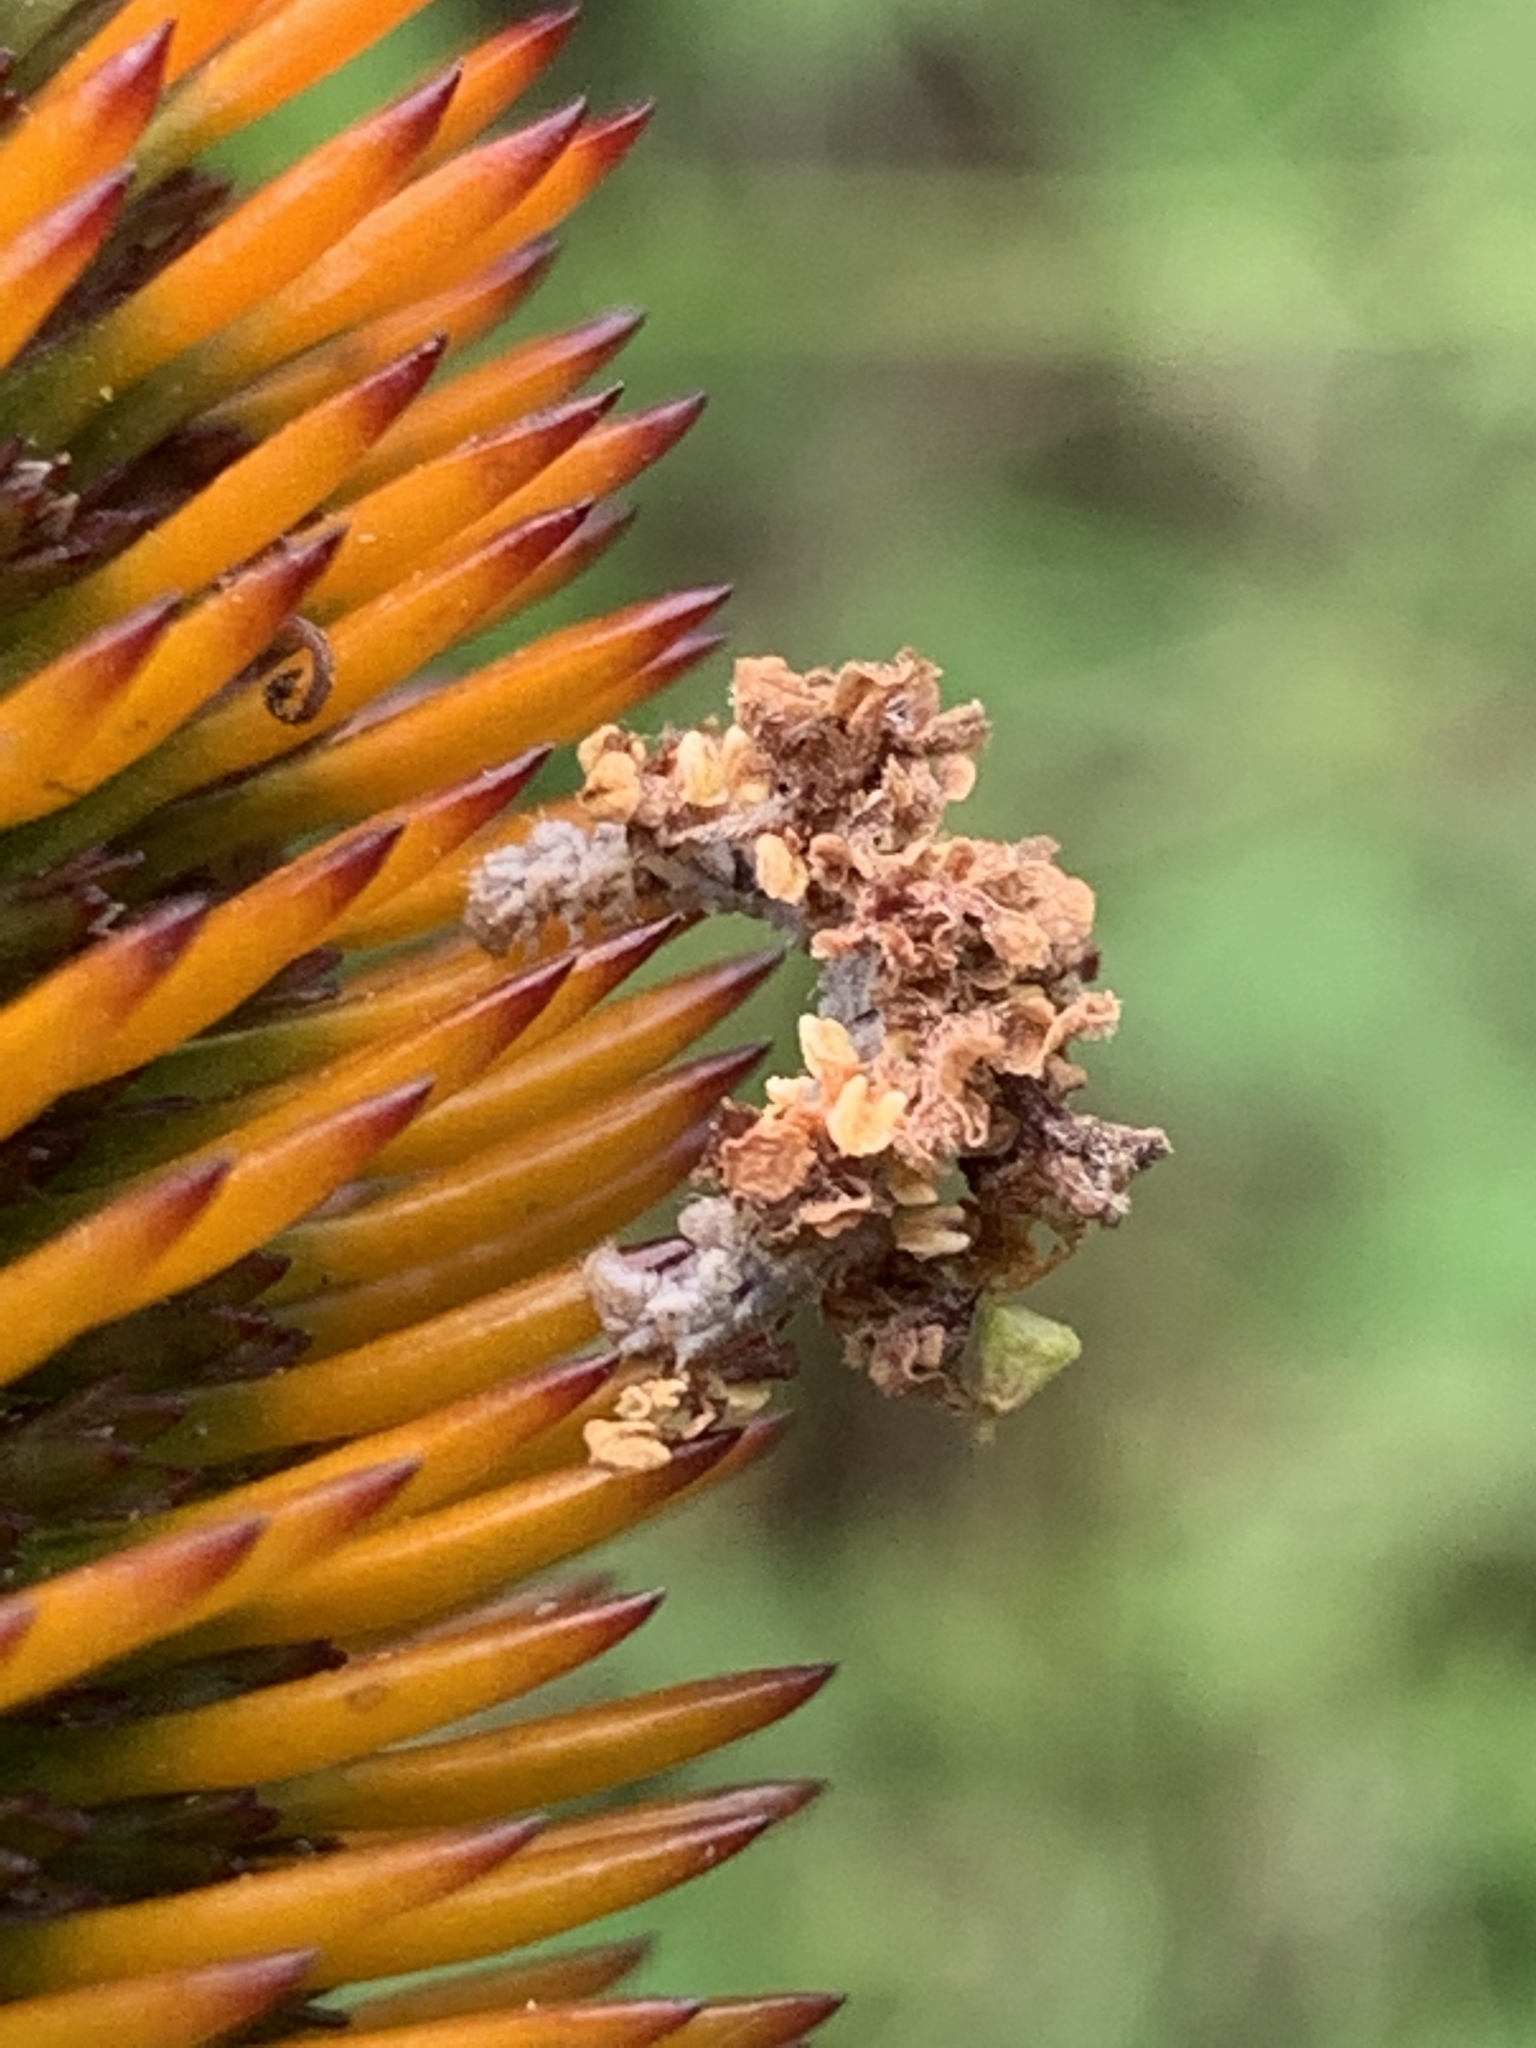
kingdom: Animalia
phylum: Arthropoda
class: Insecta
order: Lepidoptera
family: Geometridae
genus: Synchlora
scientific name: Synchlora aerata
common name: Wavy-lined emerald
